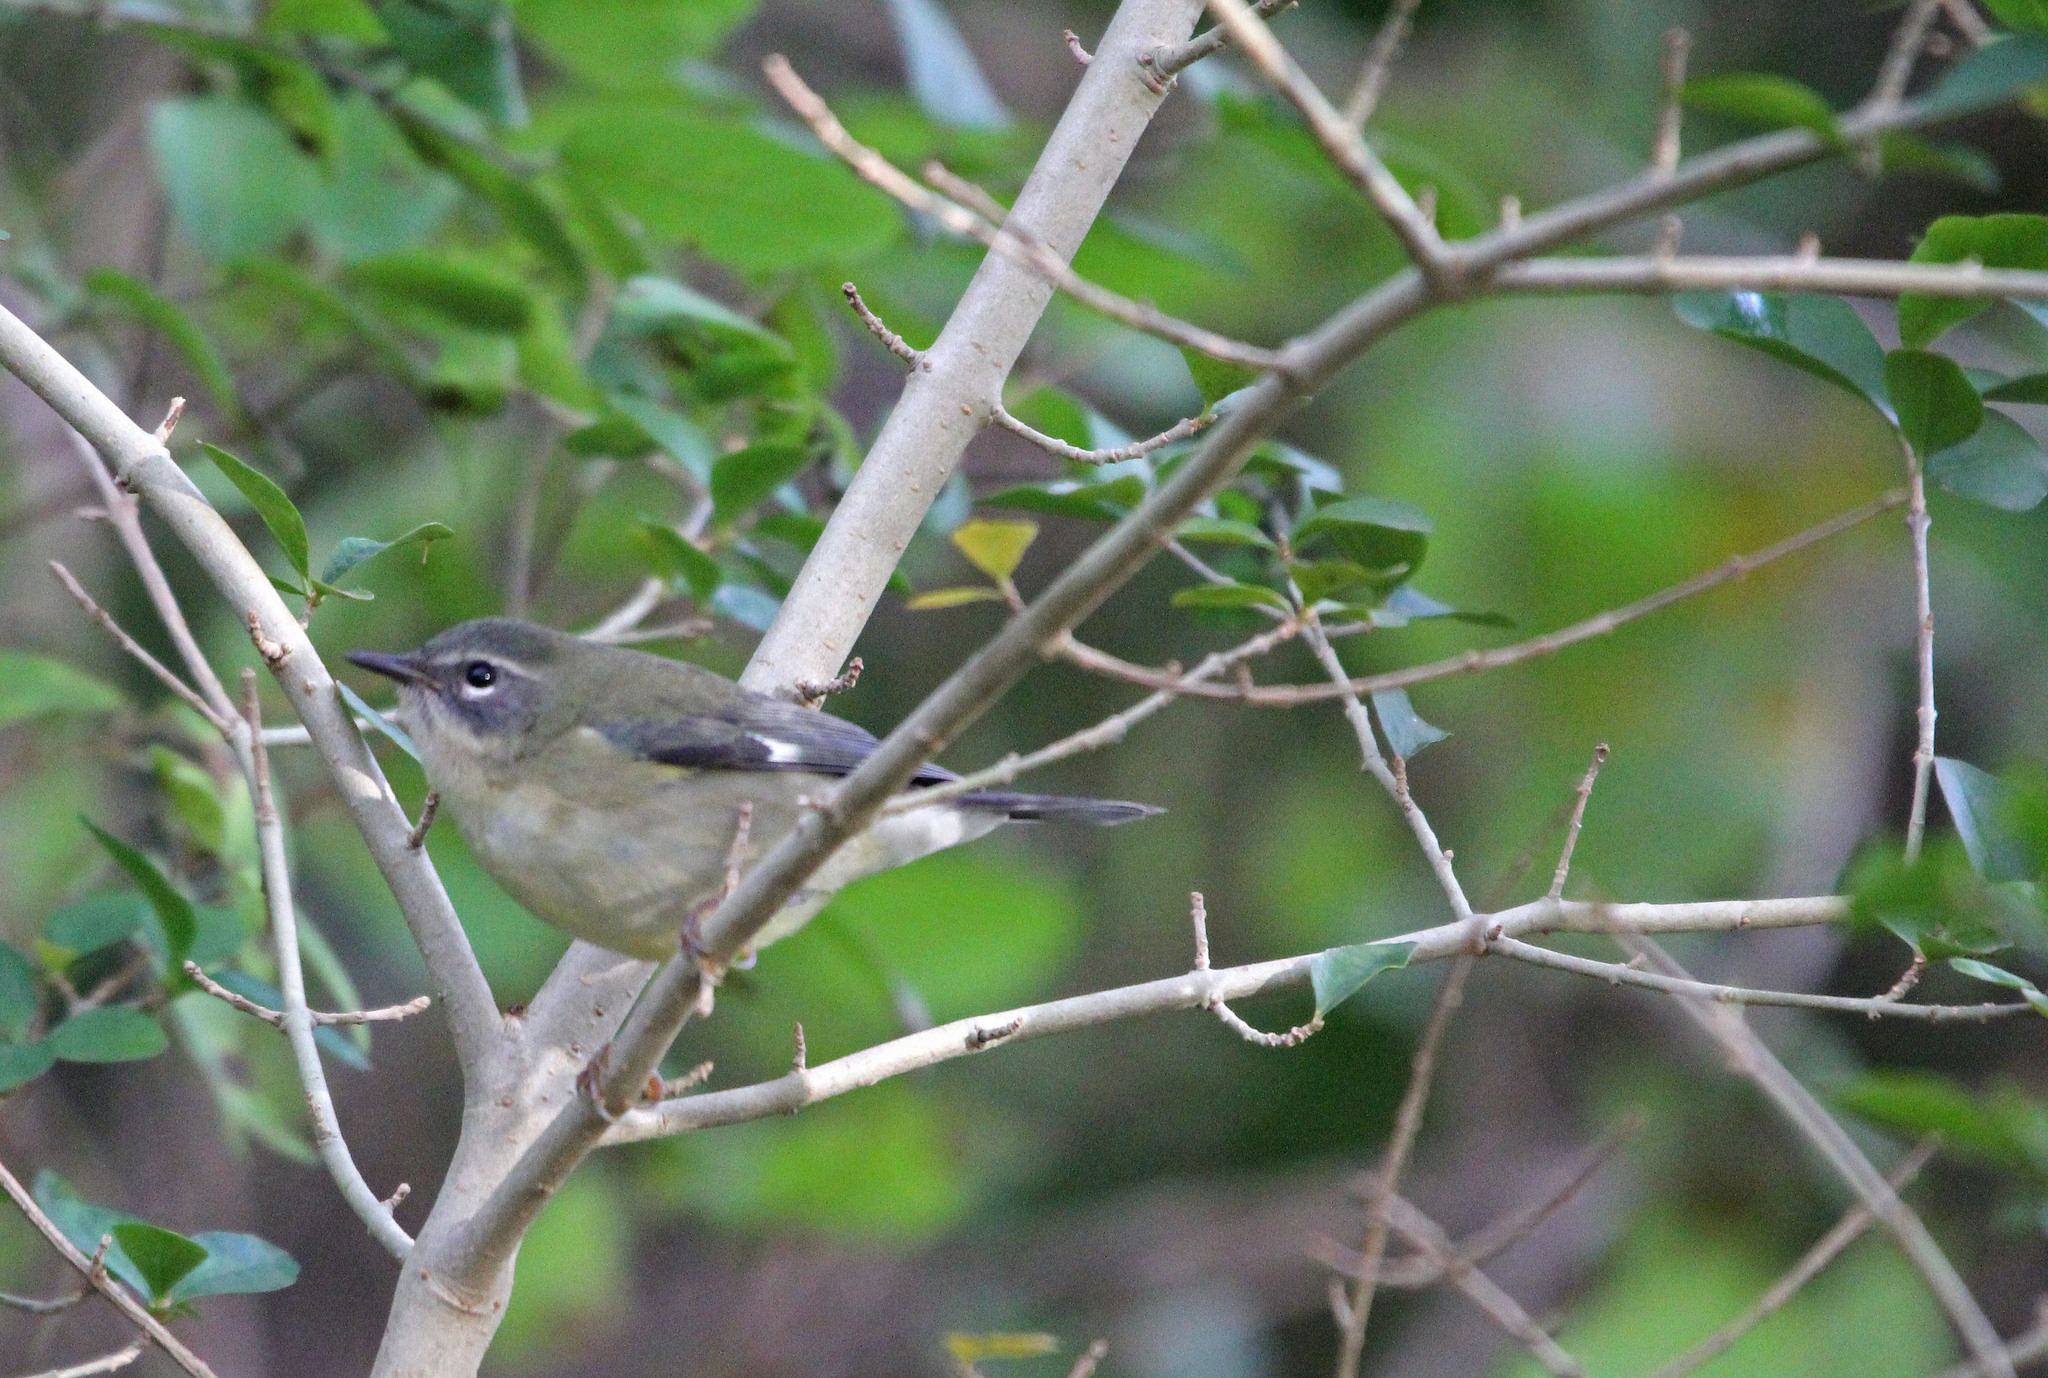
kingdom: Animalia
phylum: Chordata
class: Aves
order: Passeriformes
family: Parulidae
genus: Setophaga
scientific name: Setophaga caerulescens
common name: Black-throated blue warbler
